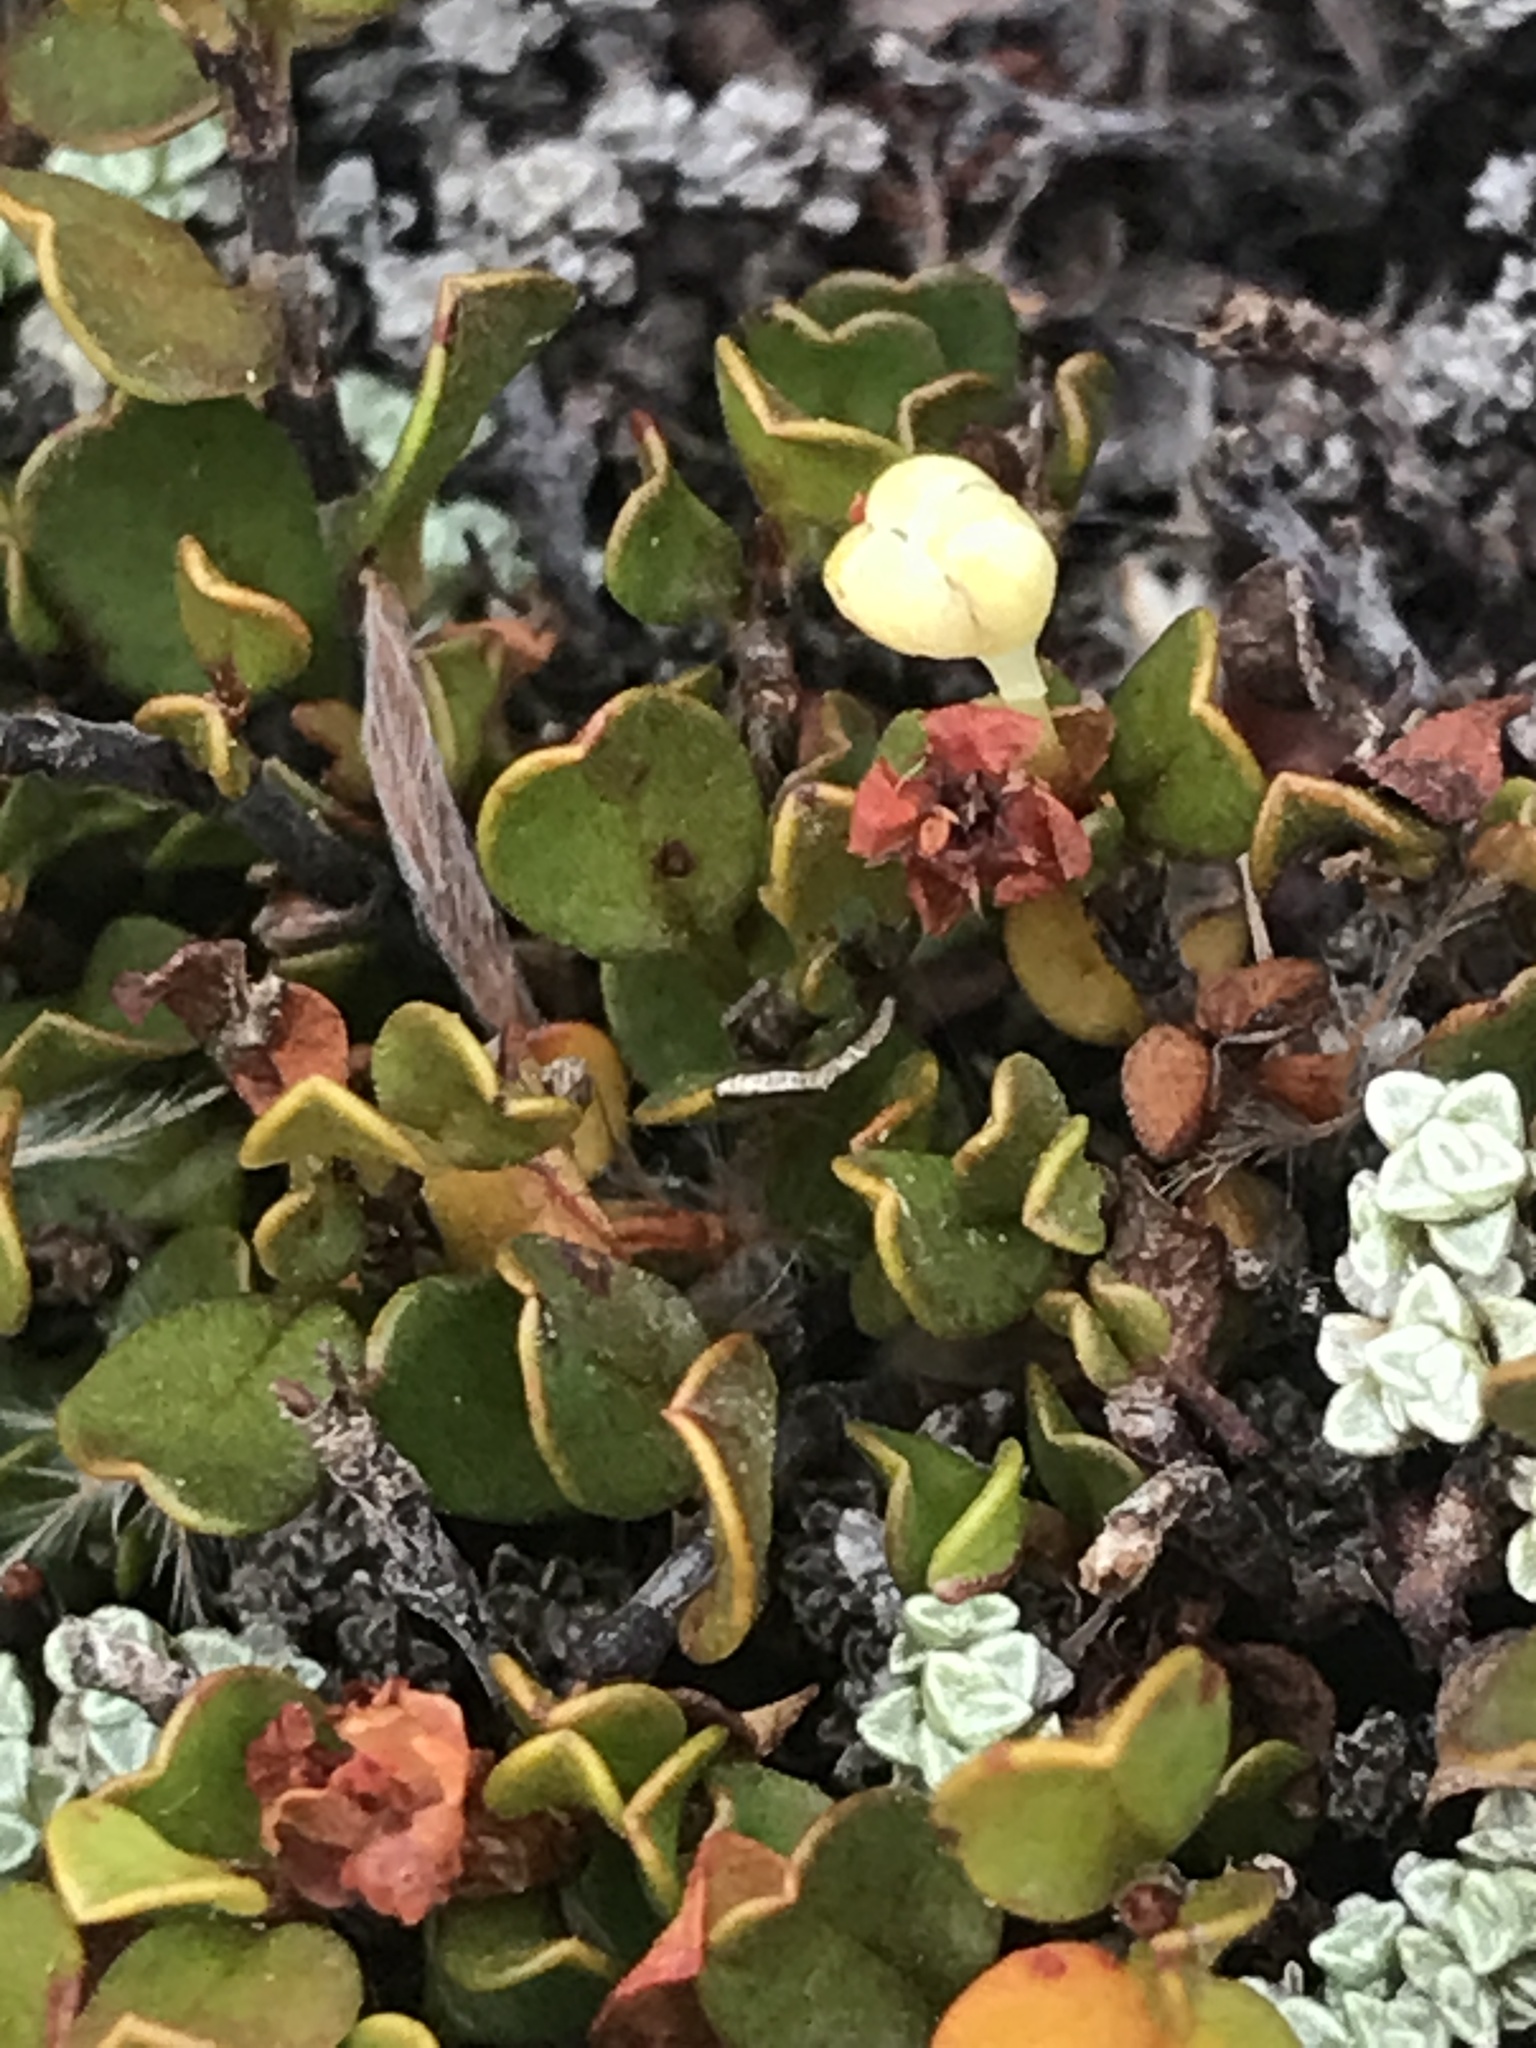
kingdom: Plantae
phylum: Tracheophyta
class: Magnoliopsida
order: Caryophyllales
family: Polygonaceae
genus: Muehlenbeckia
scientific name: Muehlenbeckia axillaris
